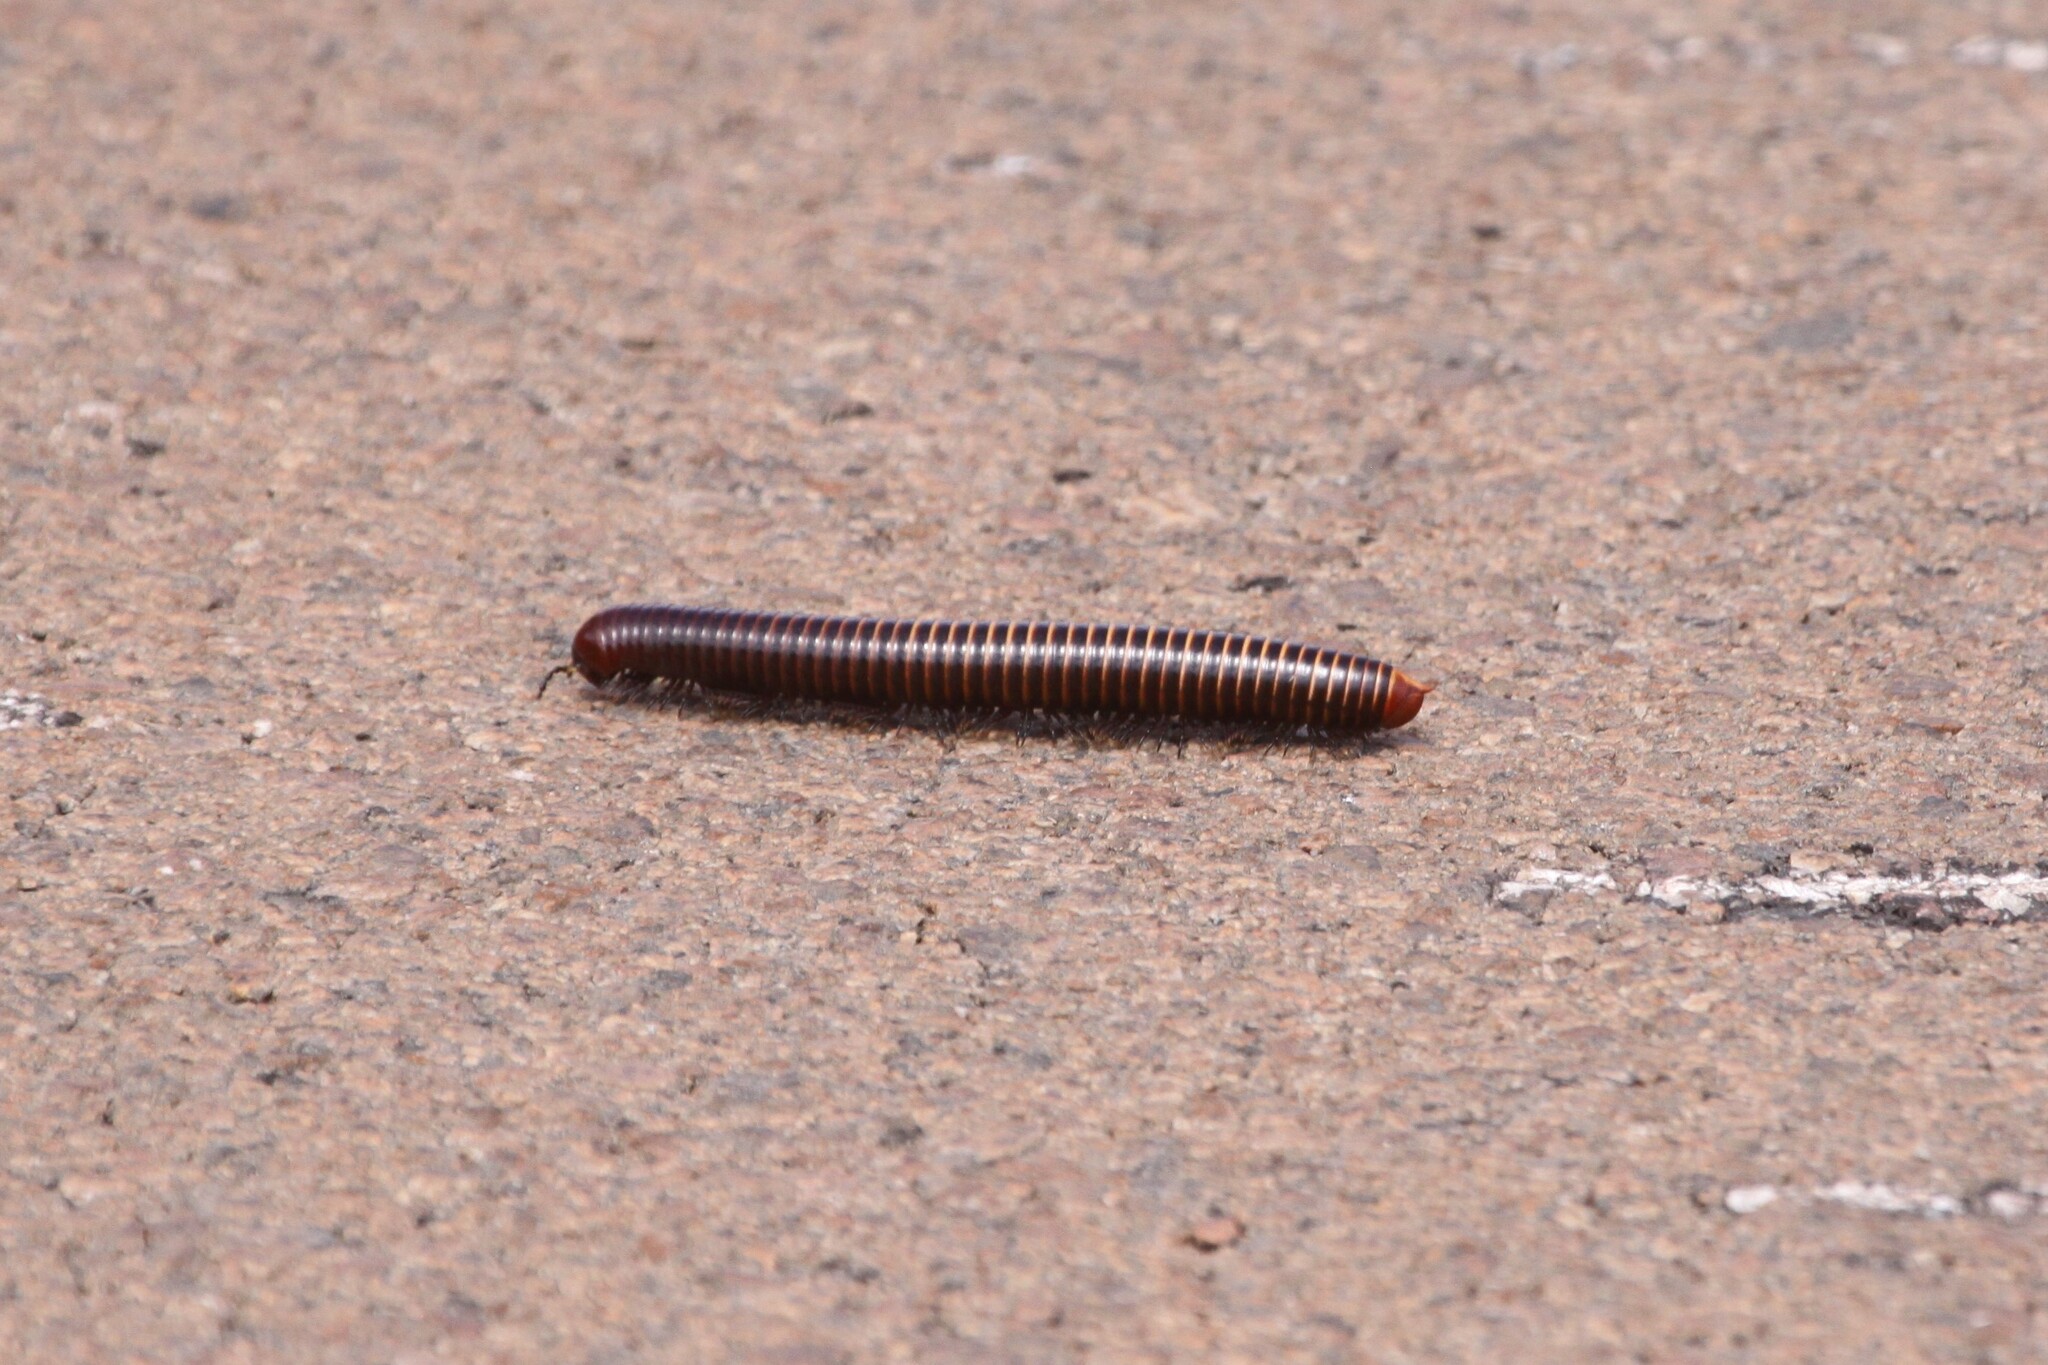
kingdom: Animalia
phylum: Arthropoda
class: Diplopoda
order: Spirostreptida
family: Harpagophoridae
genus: Zinophora
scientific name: Zinophora sabulosa
